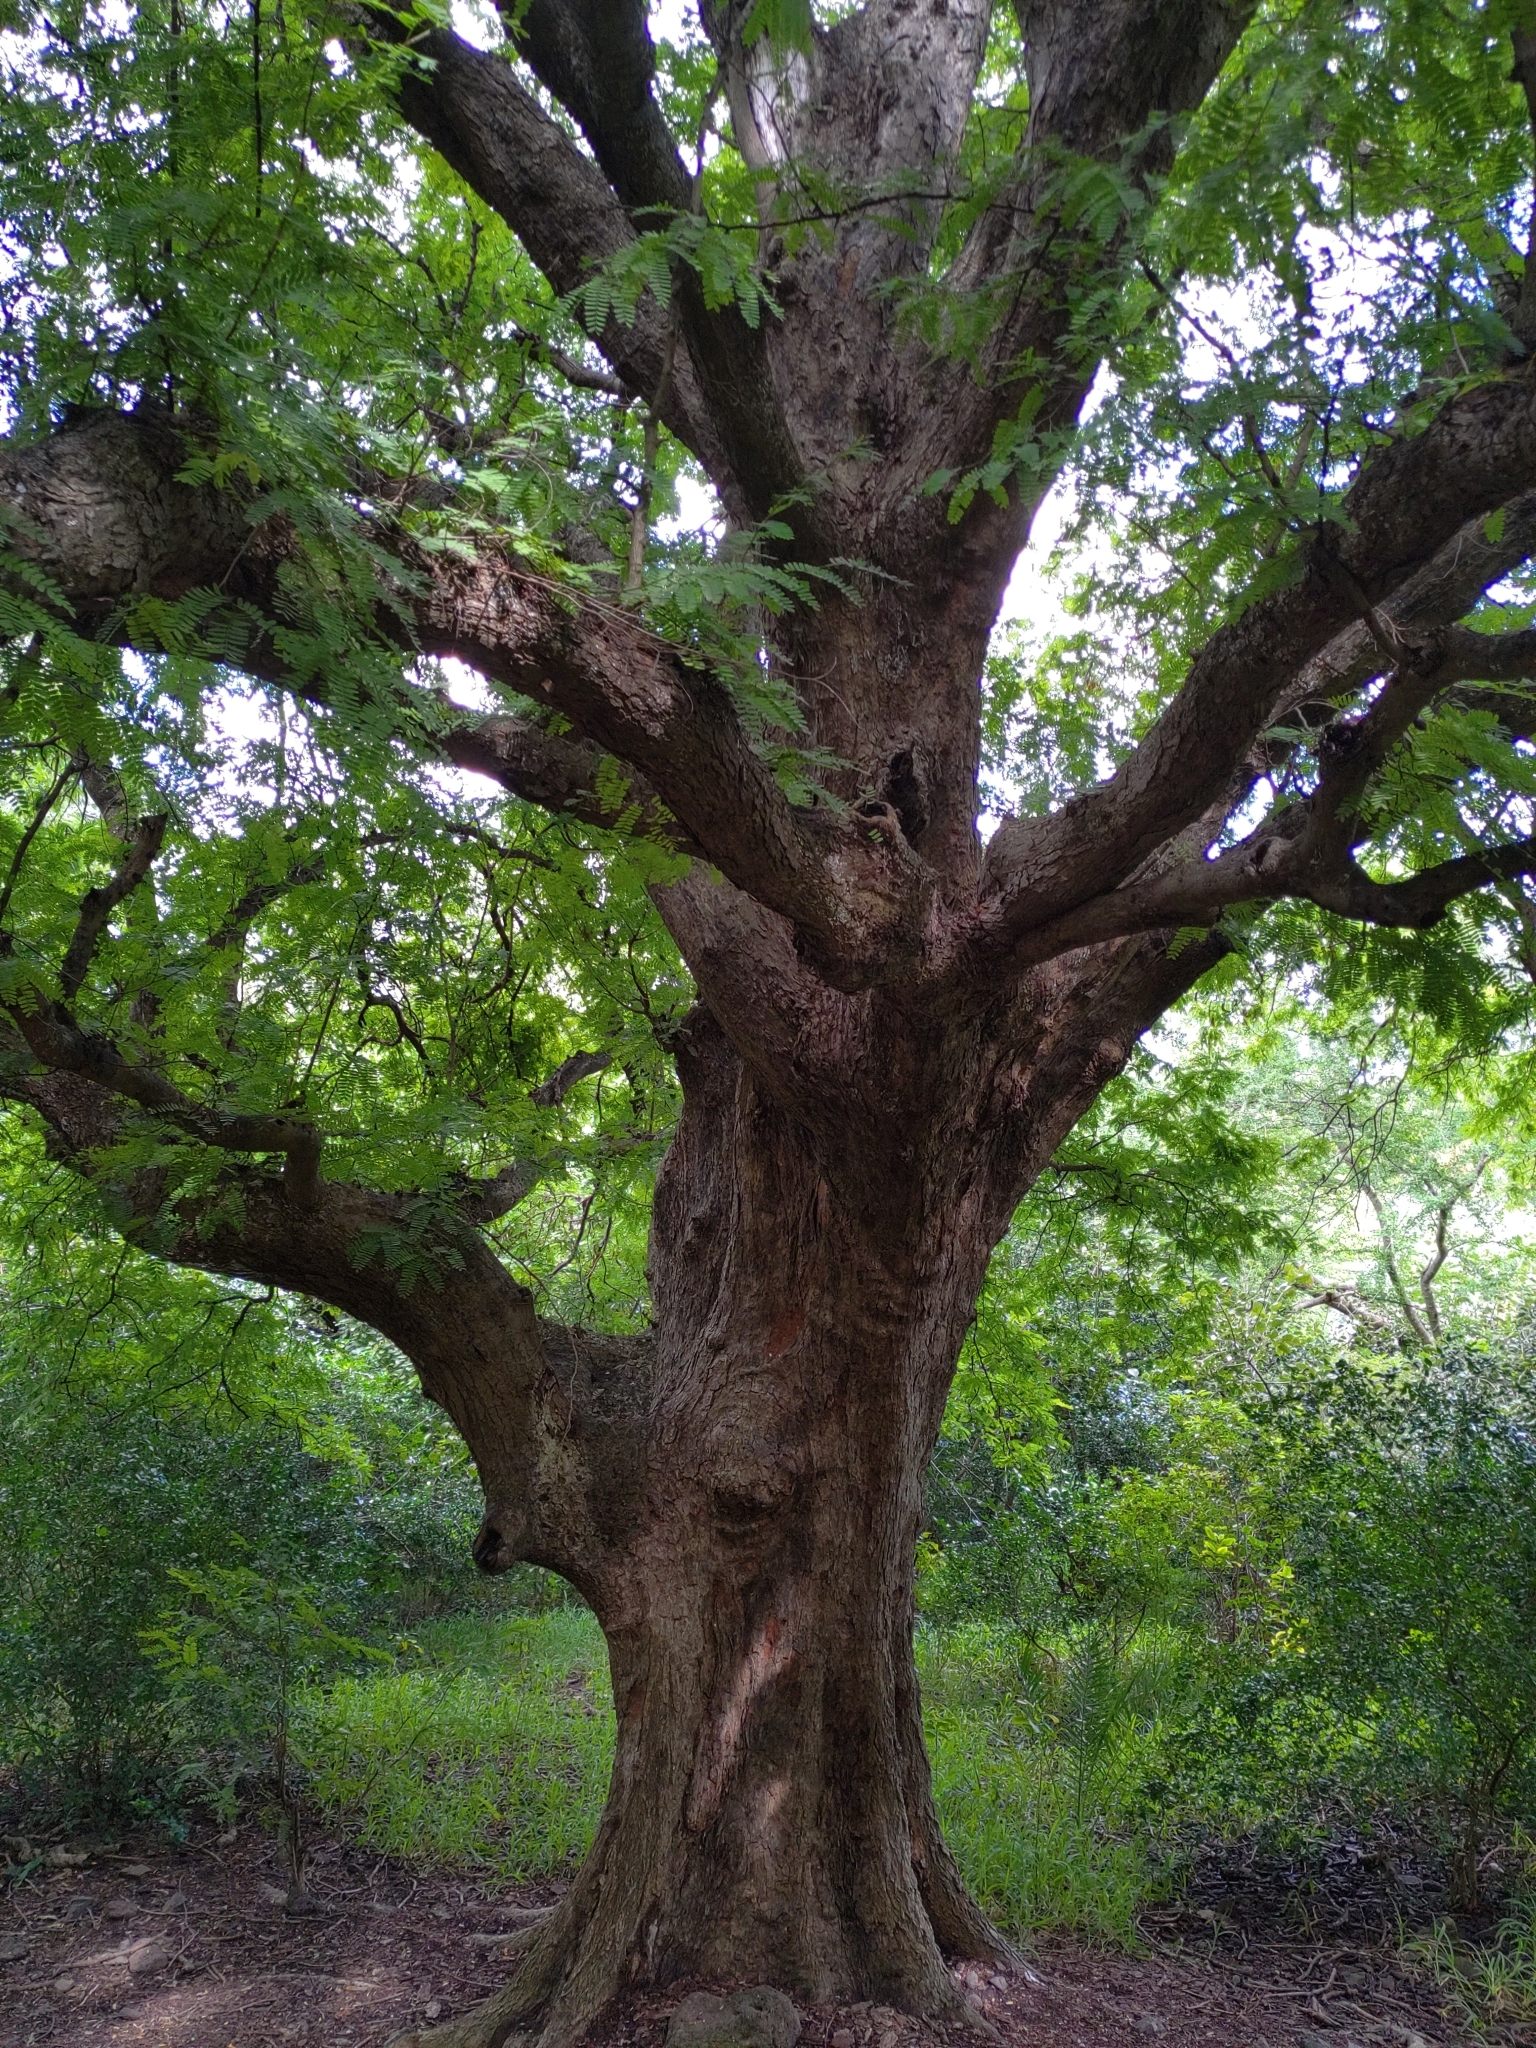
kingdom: Plantae
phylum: Tracheophyta
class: Magnoliopsida
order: Fabales
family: Fabaceae
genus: Tamarindus
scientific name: Tamarindus indica
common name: Tamarind
